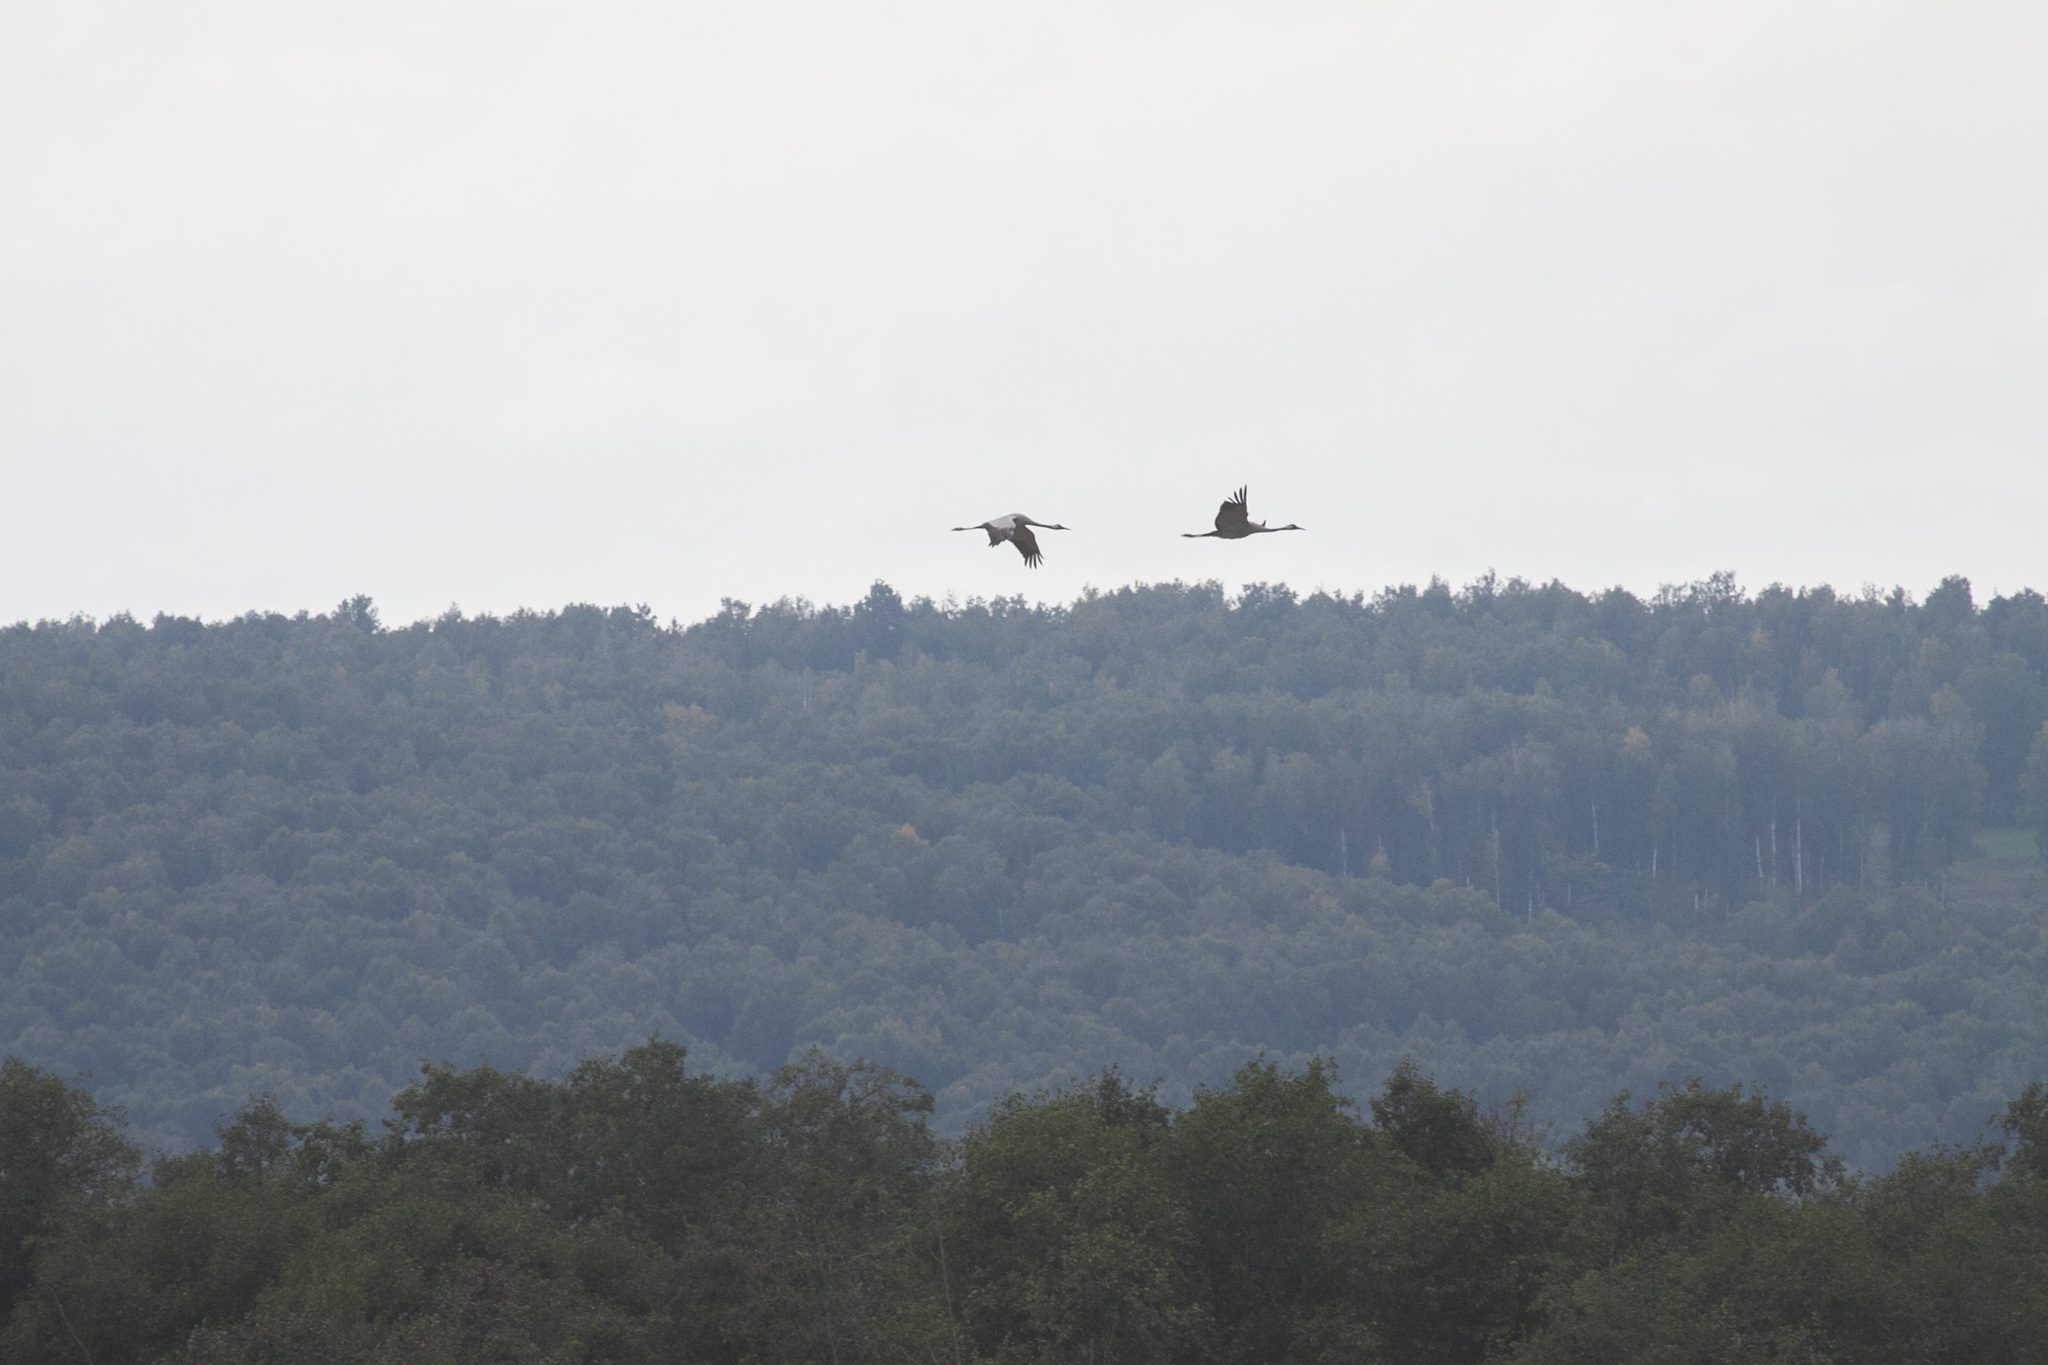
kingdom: Animalia
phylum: Chordata
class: Aves
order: Gruiformes
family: Gruidae
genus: Grus
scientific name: Grus grus
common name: Common crane
